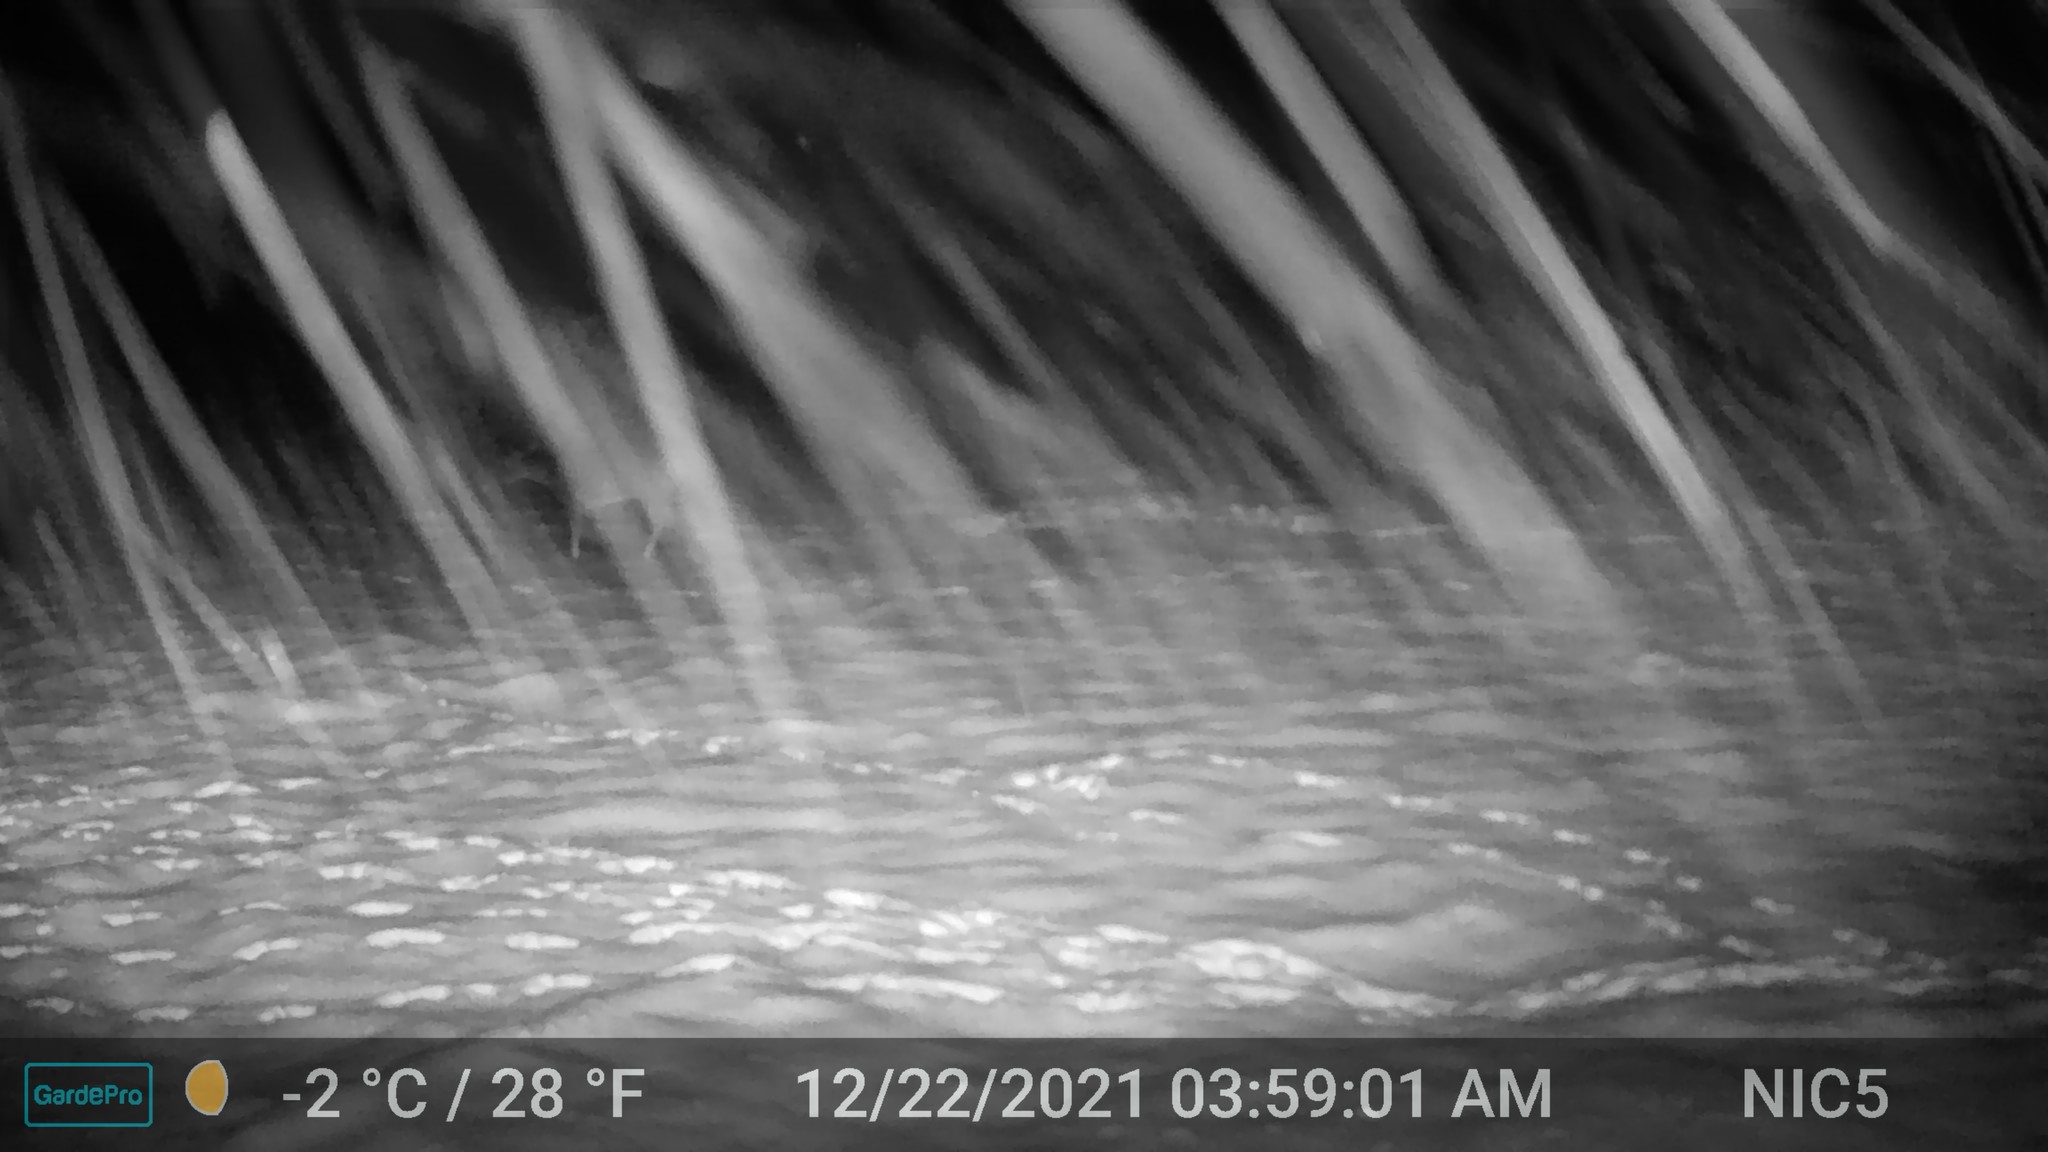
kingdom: Animalia
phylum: Chordata
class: Mammalia
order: Artiodactyla
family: Cervidae
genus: Odocoileus
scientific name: Odocoileus virginianus
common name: White-tailed deer
